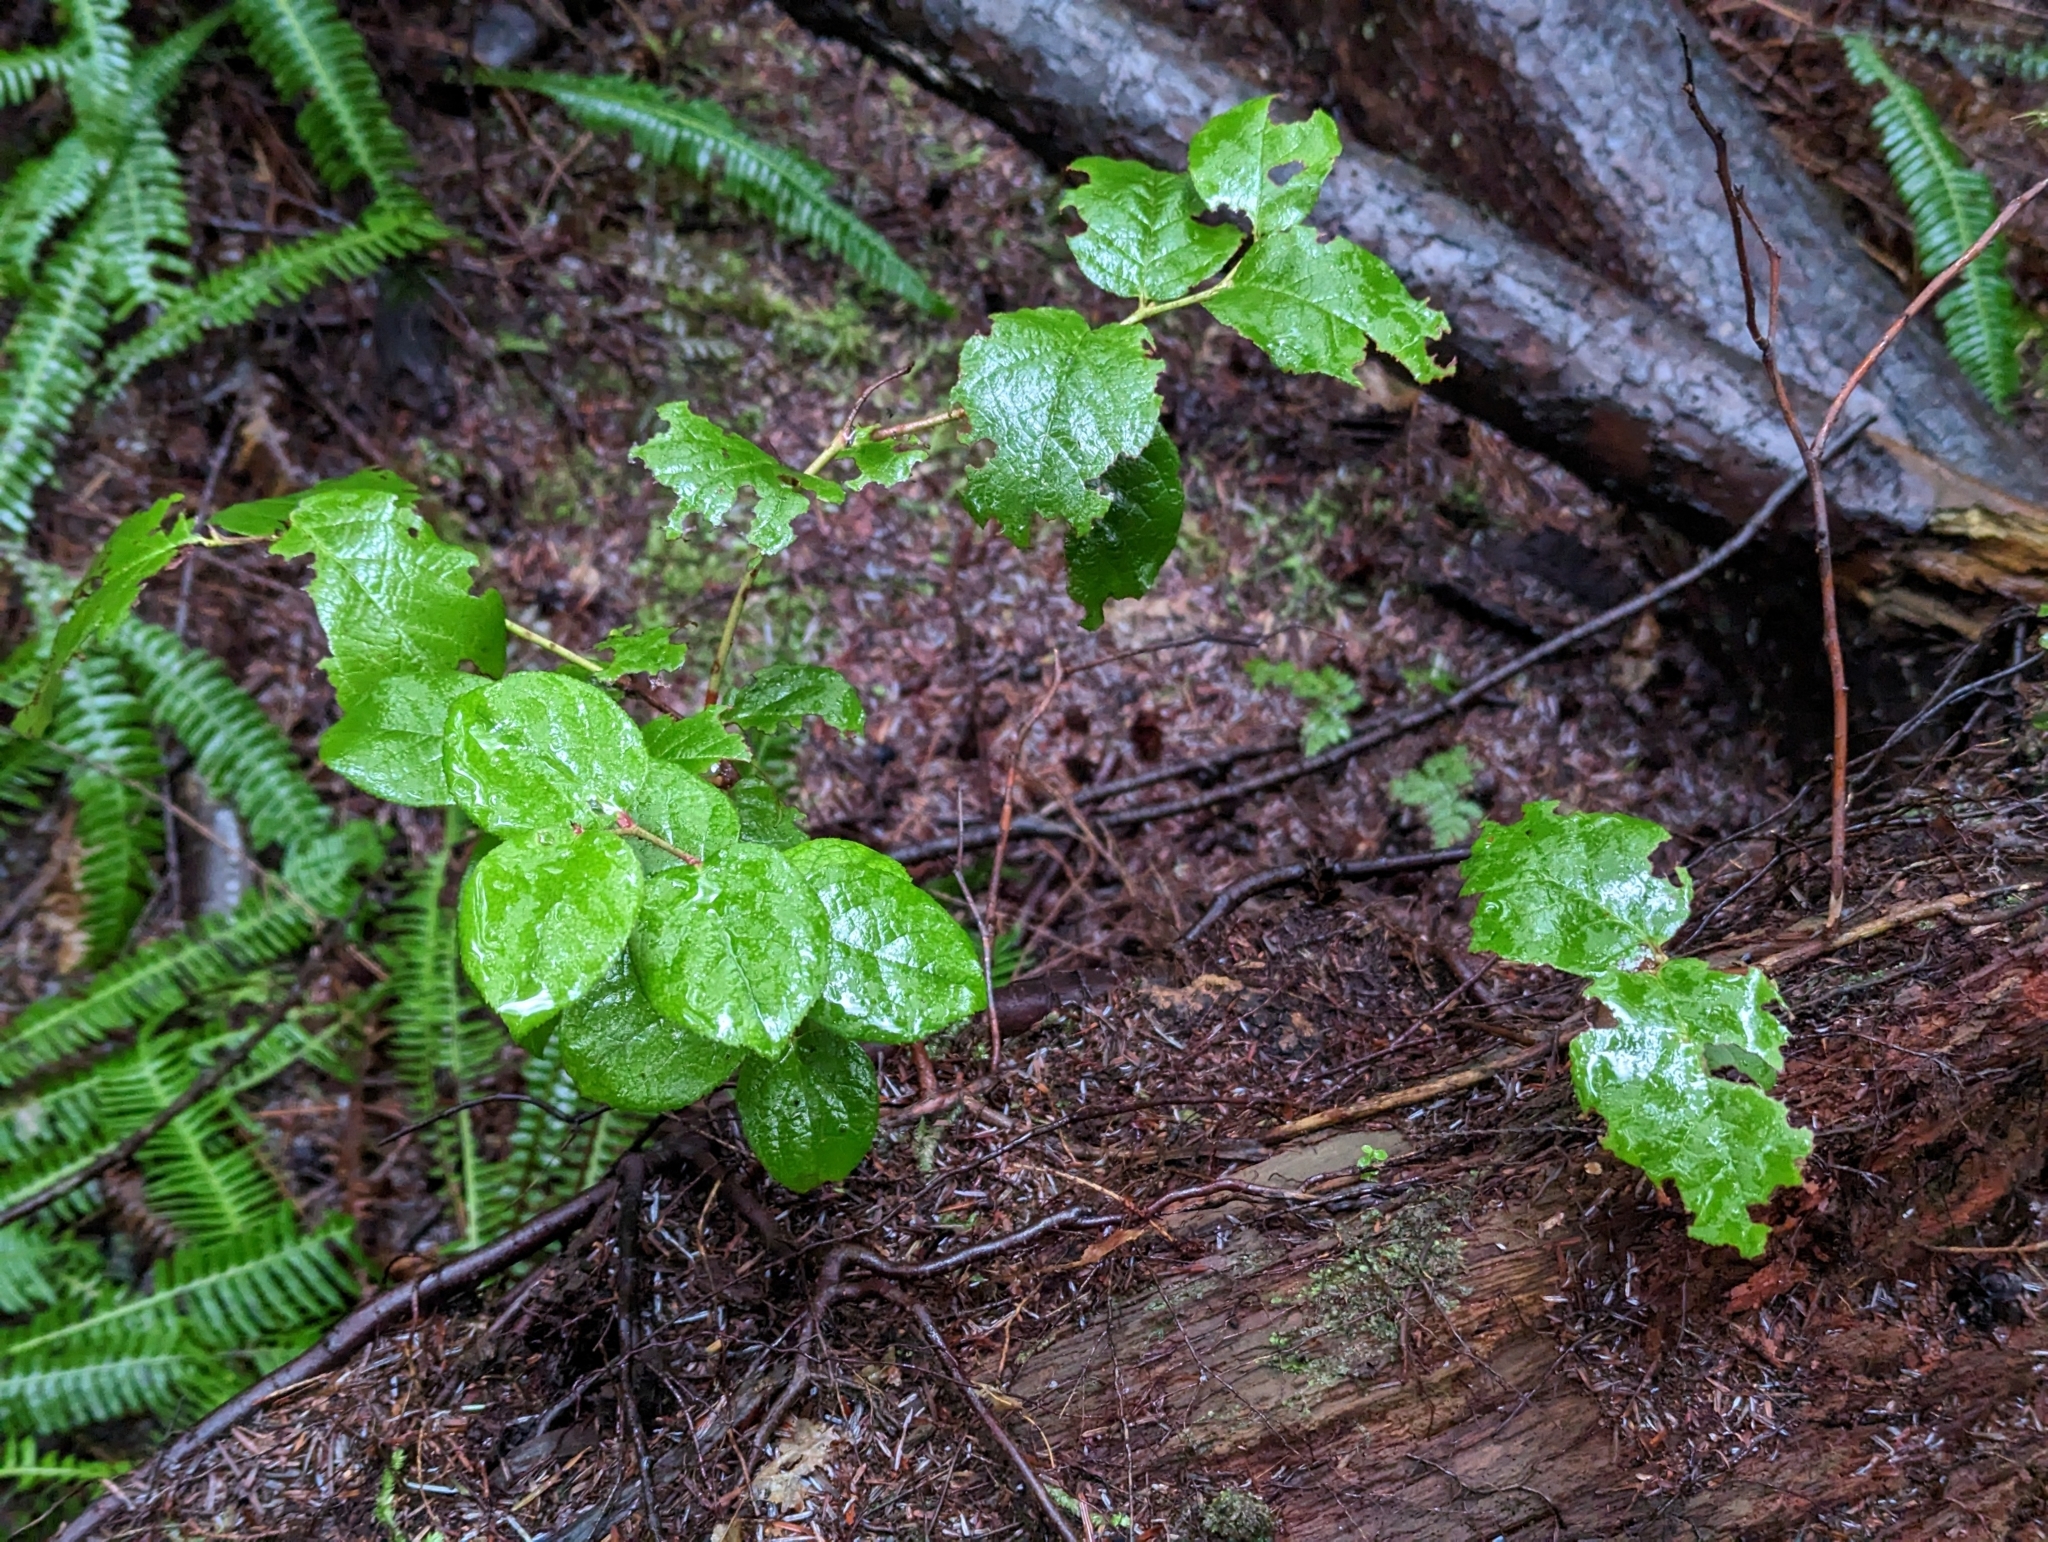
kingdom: Plantae
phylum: Tracheophyta
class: Magnoliopsida
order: Ericales
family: Ericaceae
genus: Gaultheria
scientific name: Gaultheria shallon
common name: Shallon
